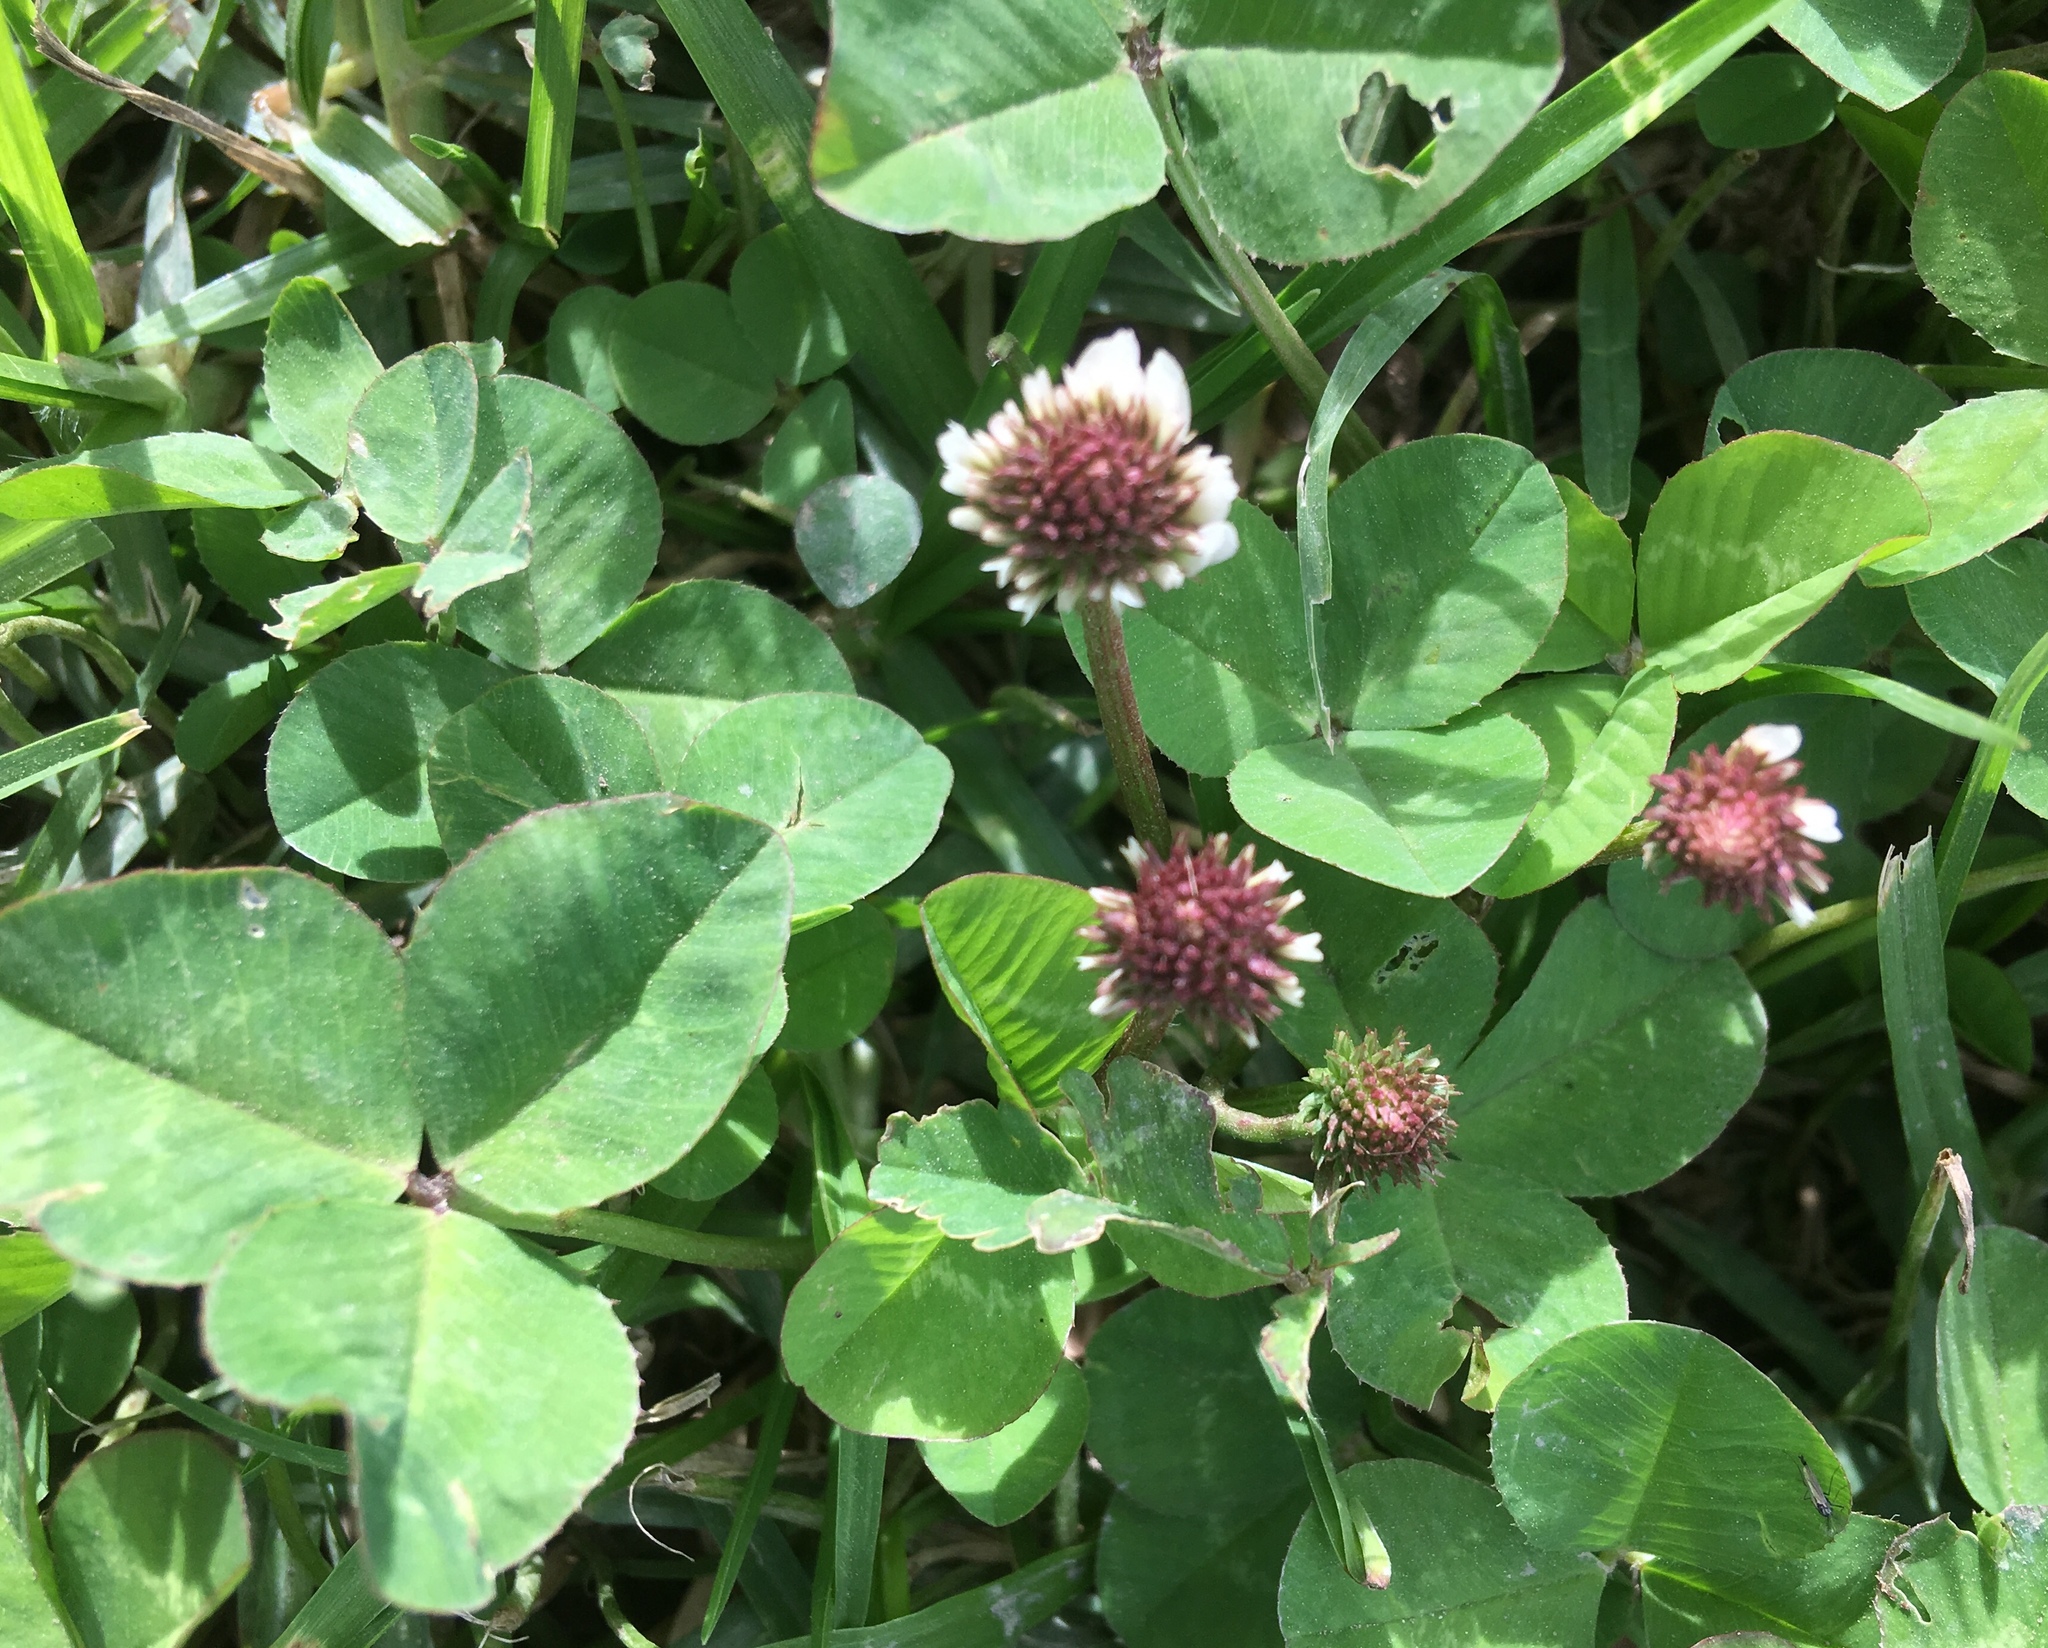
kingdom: Plantae
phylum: Tracheophyta
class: Magnoliopsida
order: Fabales
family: Fabaceae
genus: Trifolium
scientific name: Trifolium repens
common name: White clover
